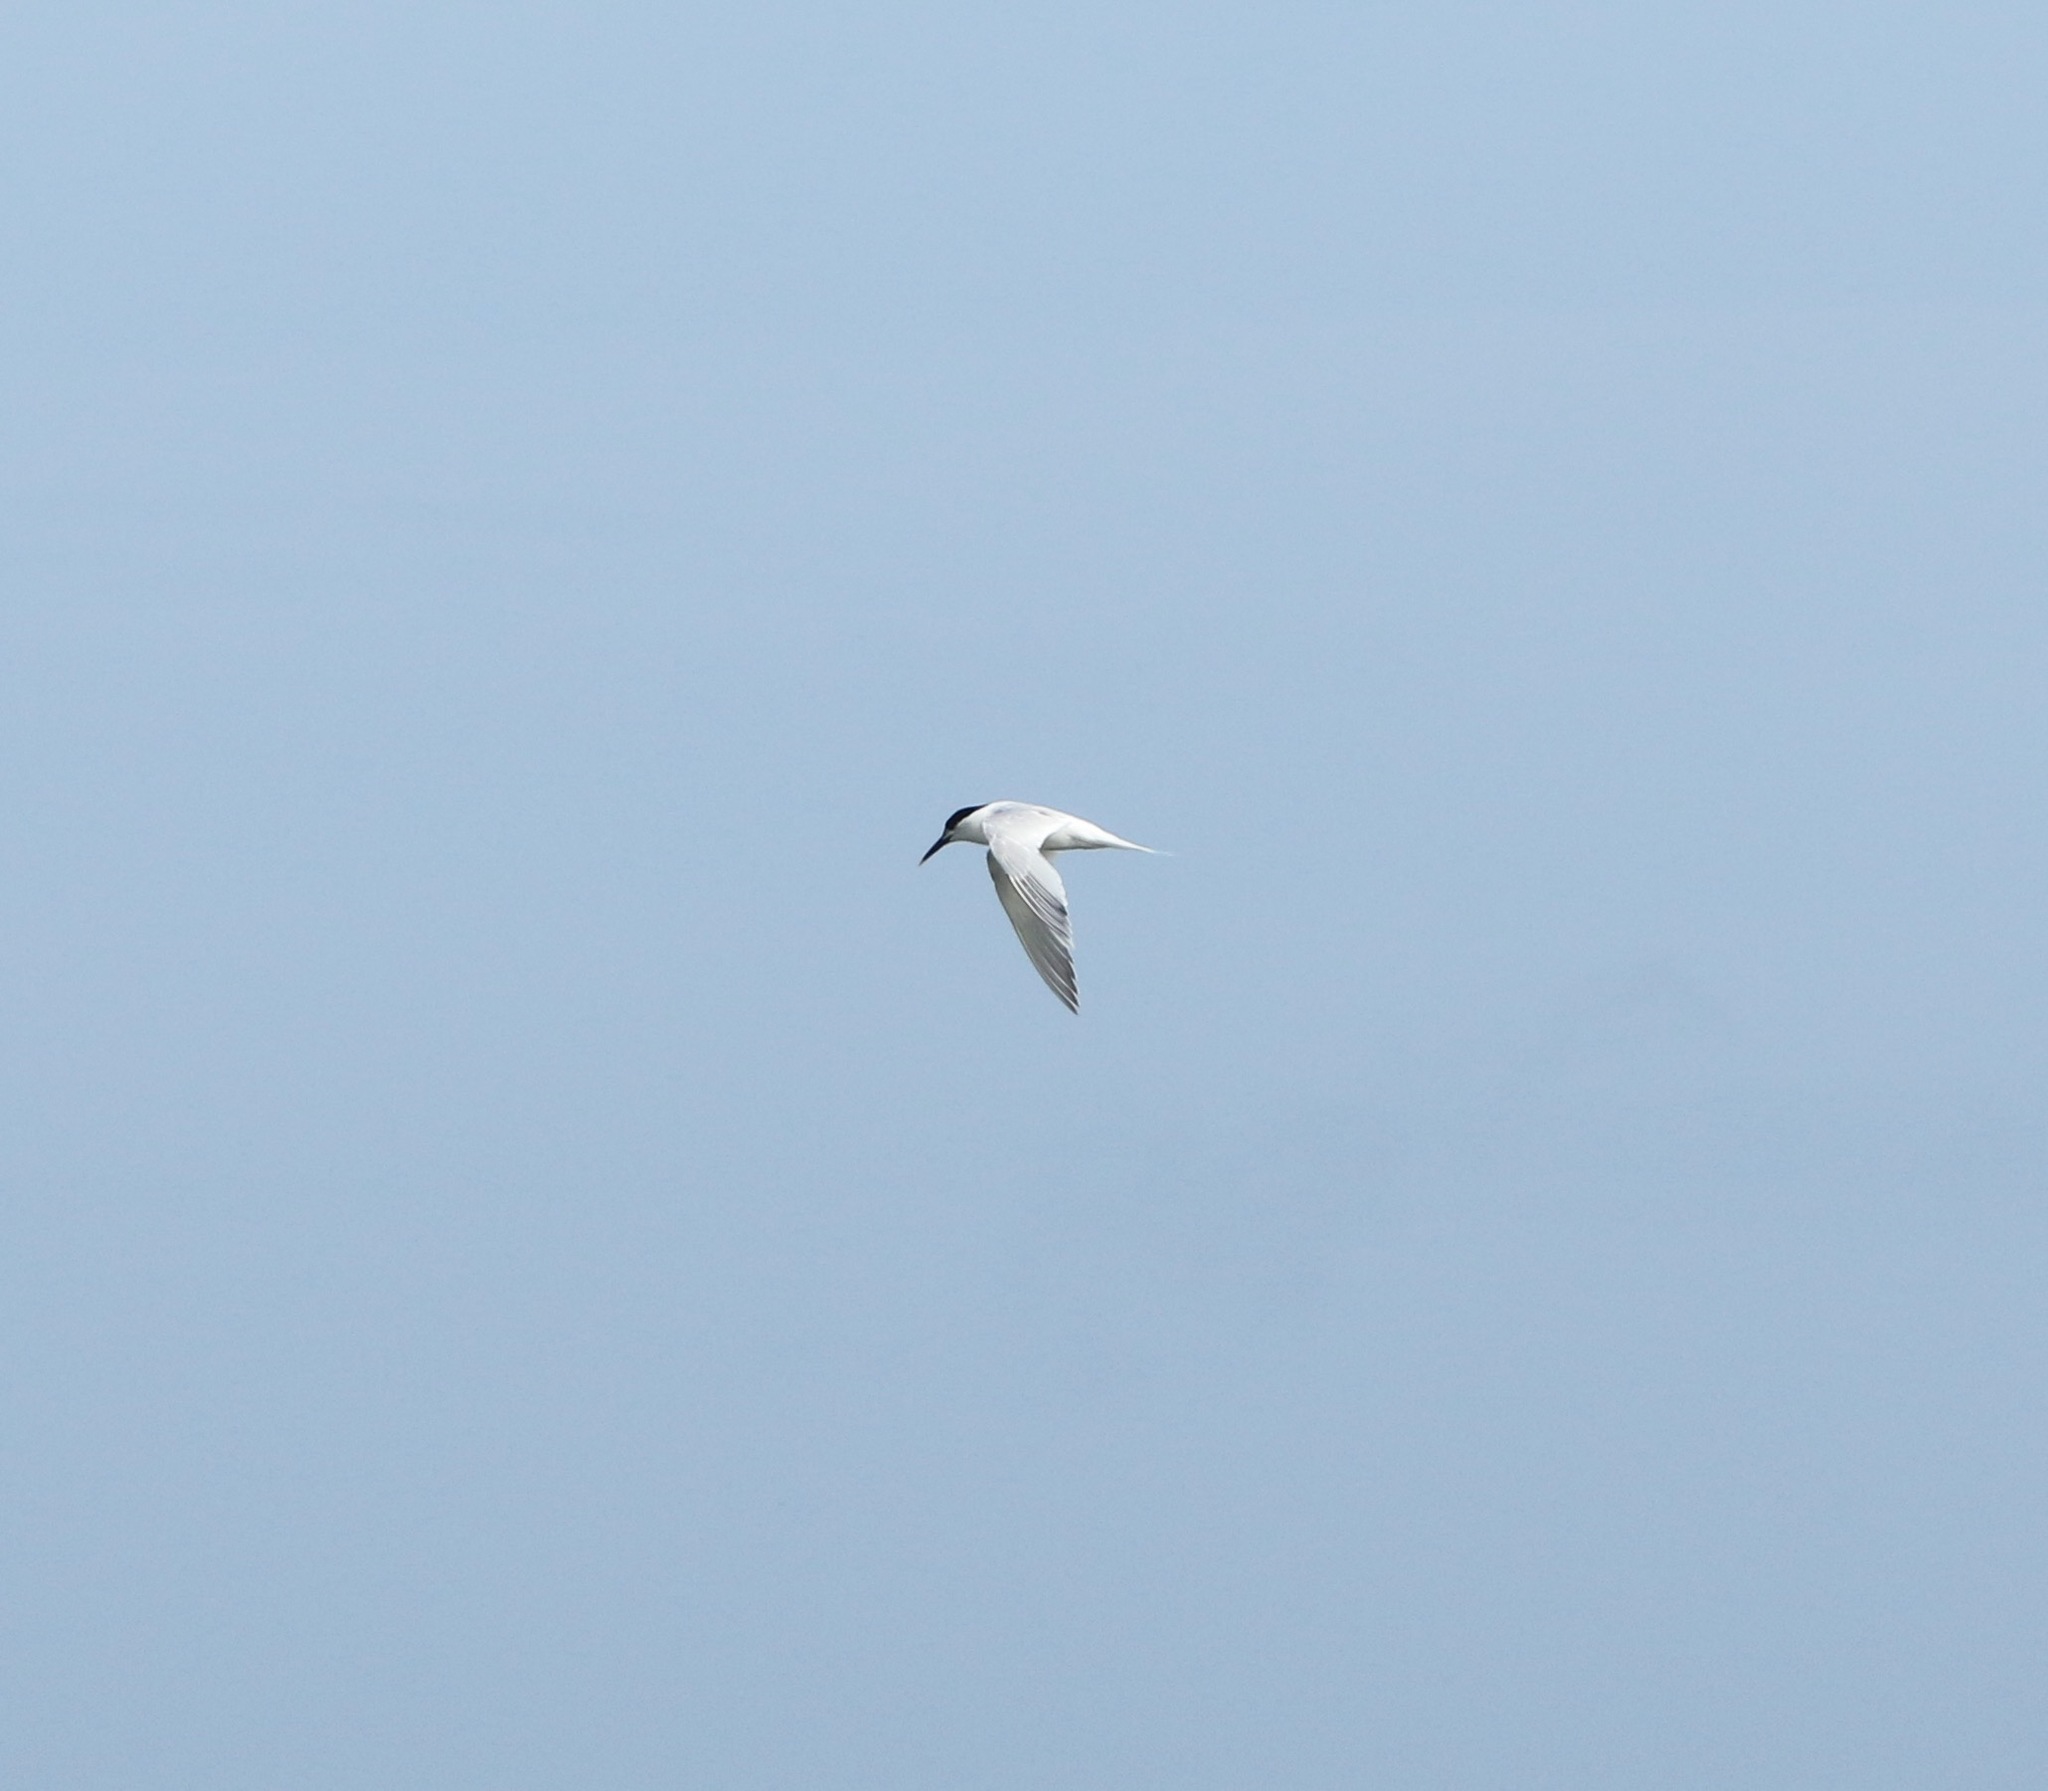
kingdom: Animalia
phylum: Chordata
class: Aves
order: Charadriiformes
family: Laridae
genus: Thalasseus
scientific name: Thalasseus sandvicensis
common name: Sandwich tern
